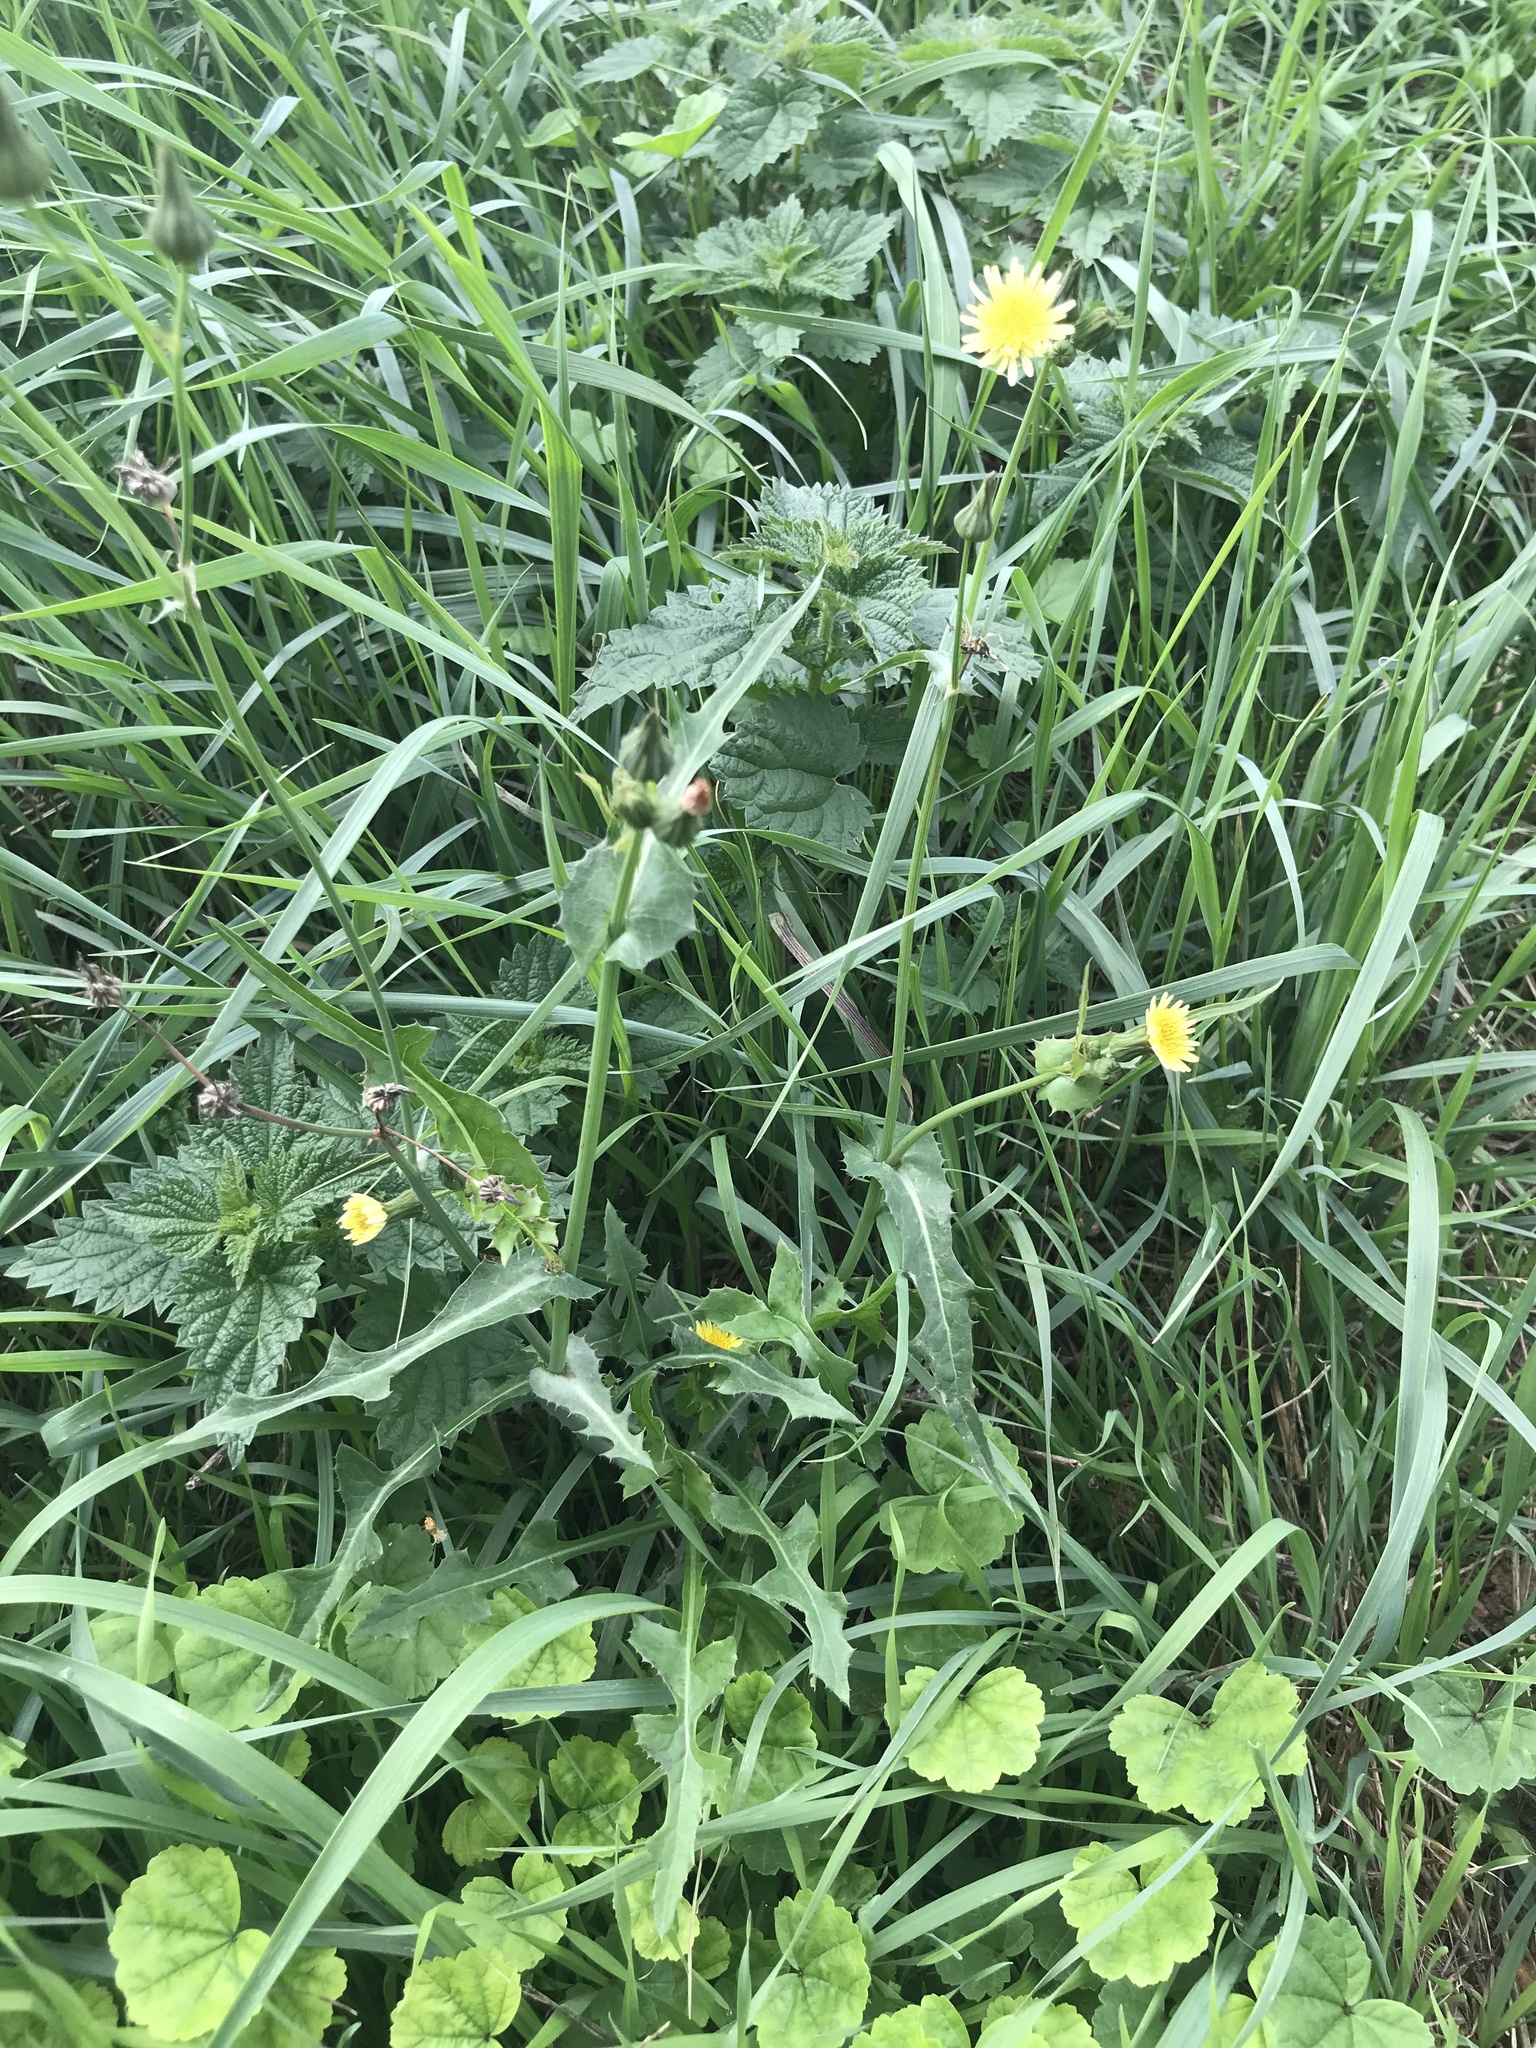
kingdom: Plantae
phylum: Tracheophyta
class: Magnoliopsida
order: Asterales
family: Asteraceae
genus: Sonchus
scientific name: Sonchus oleraceus
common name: Common sowthistle
